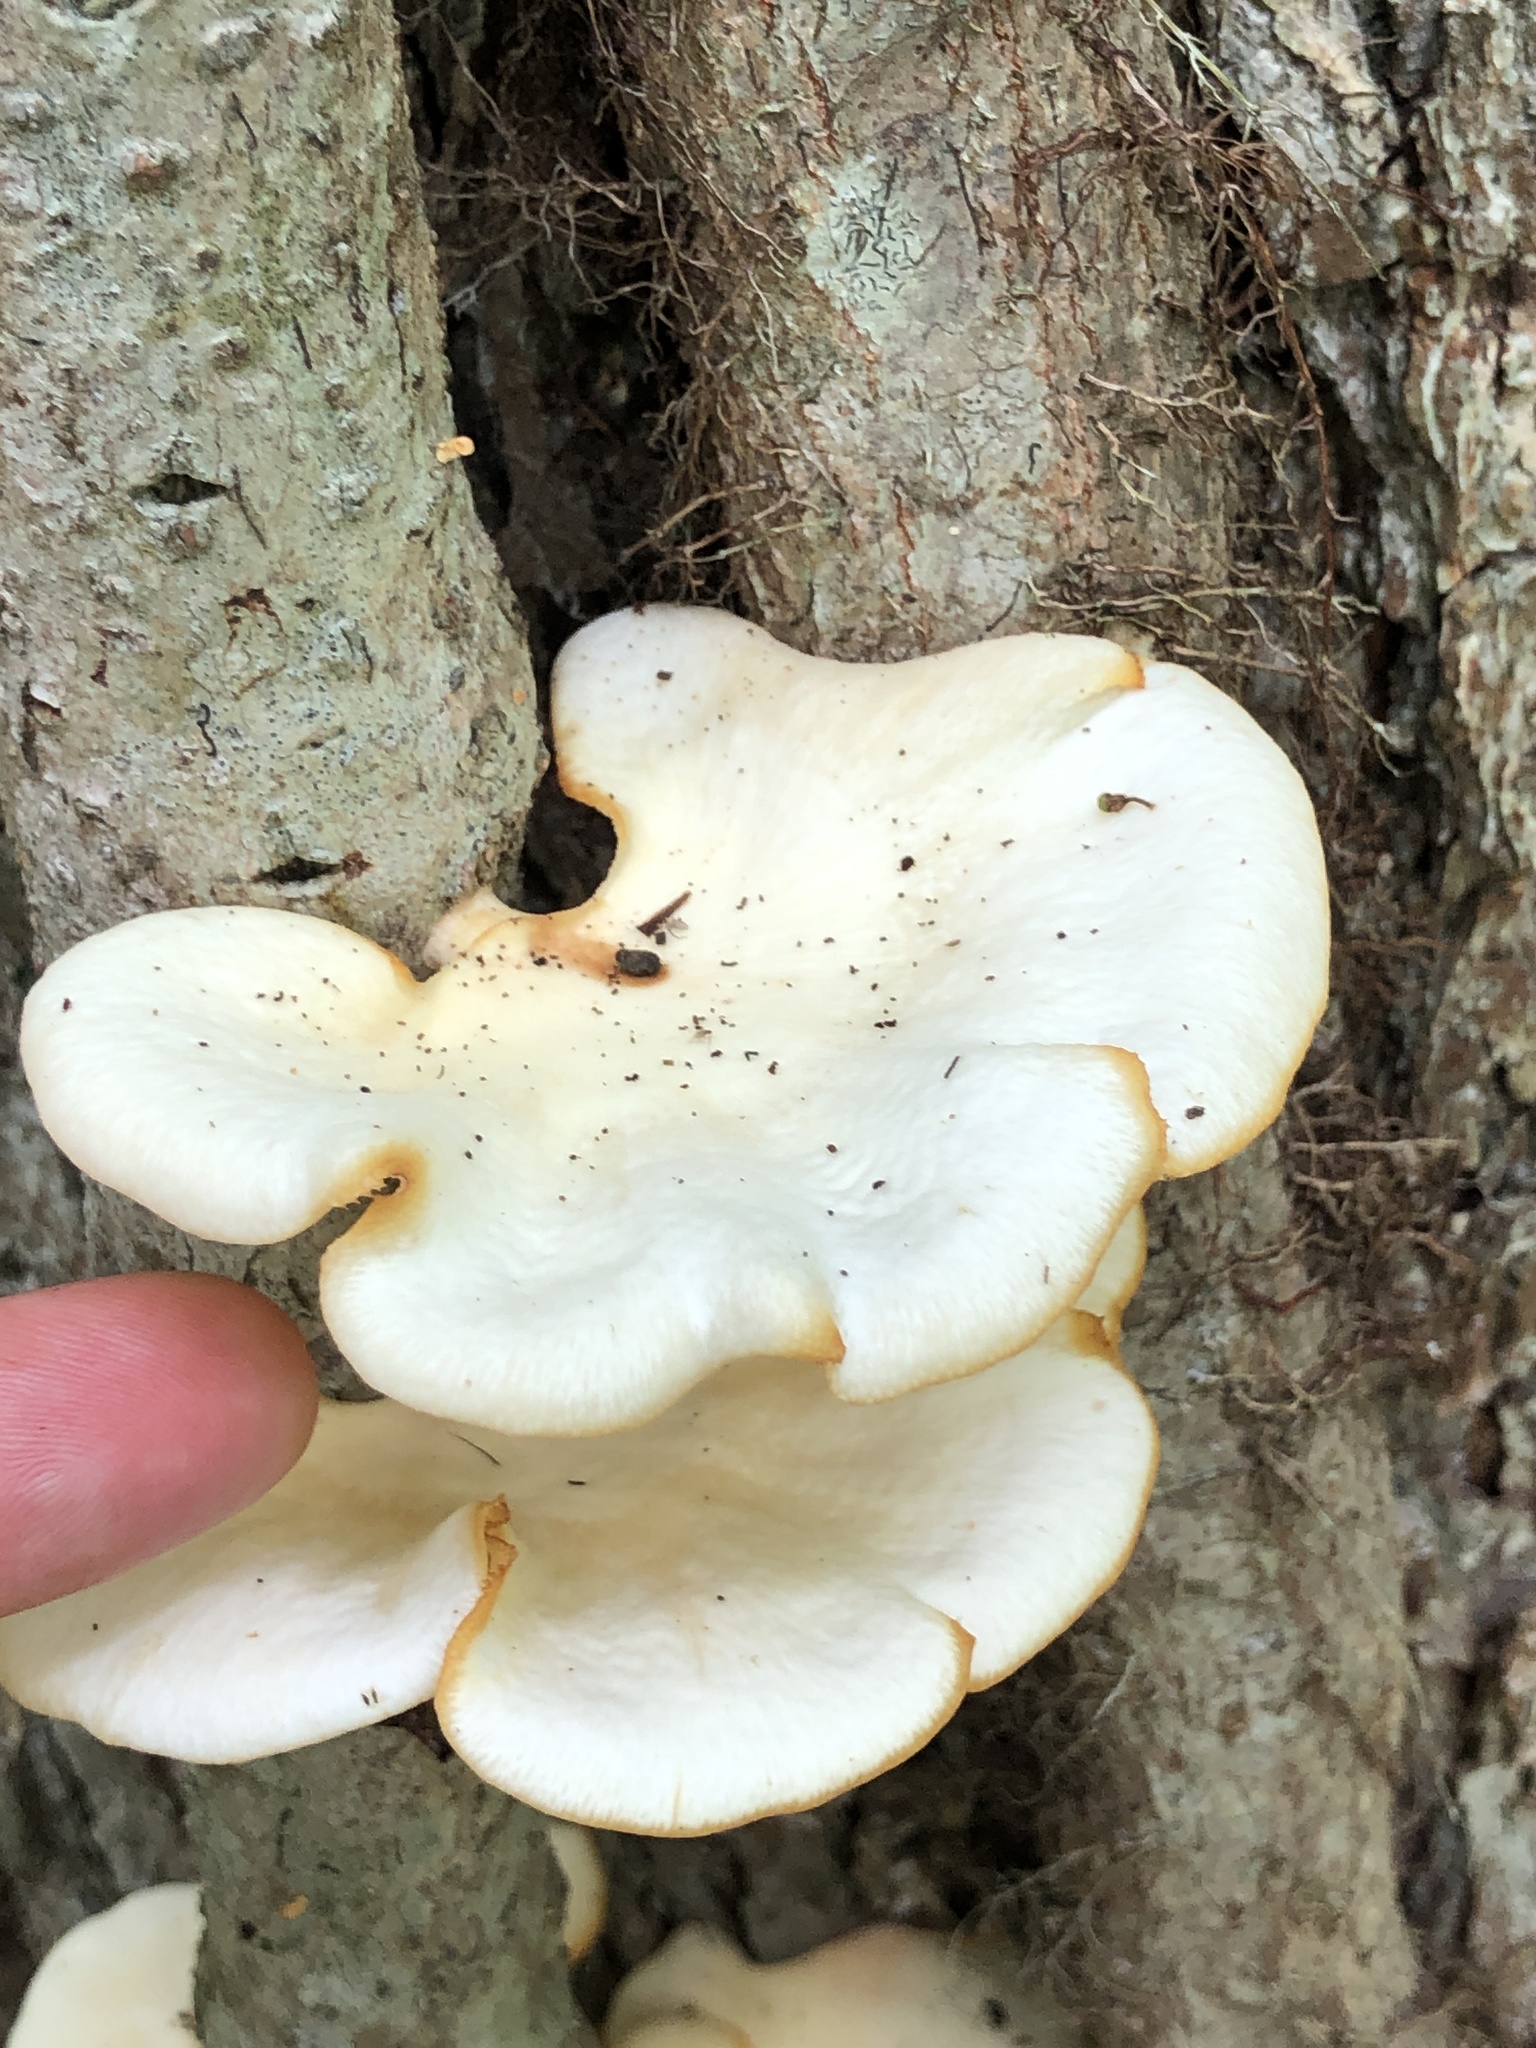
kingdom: Fungi
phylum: Basidiomycota
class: Agaricomycetes
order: Polyporales
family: Polyporaceae
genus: Favolus
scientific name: Favolus tenuiculus
